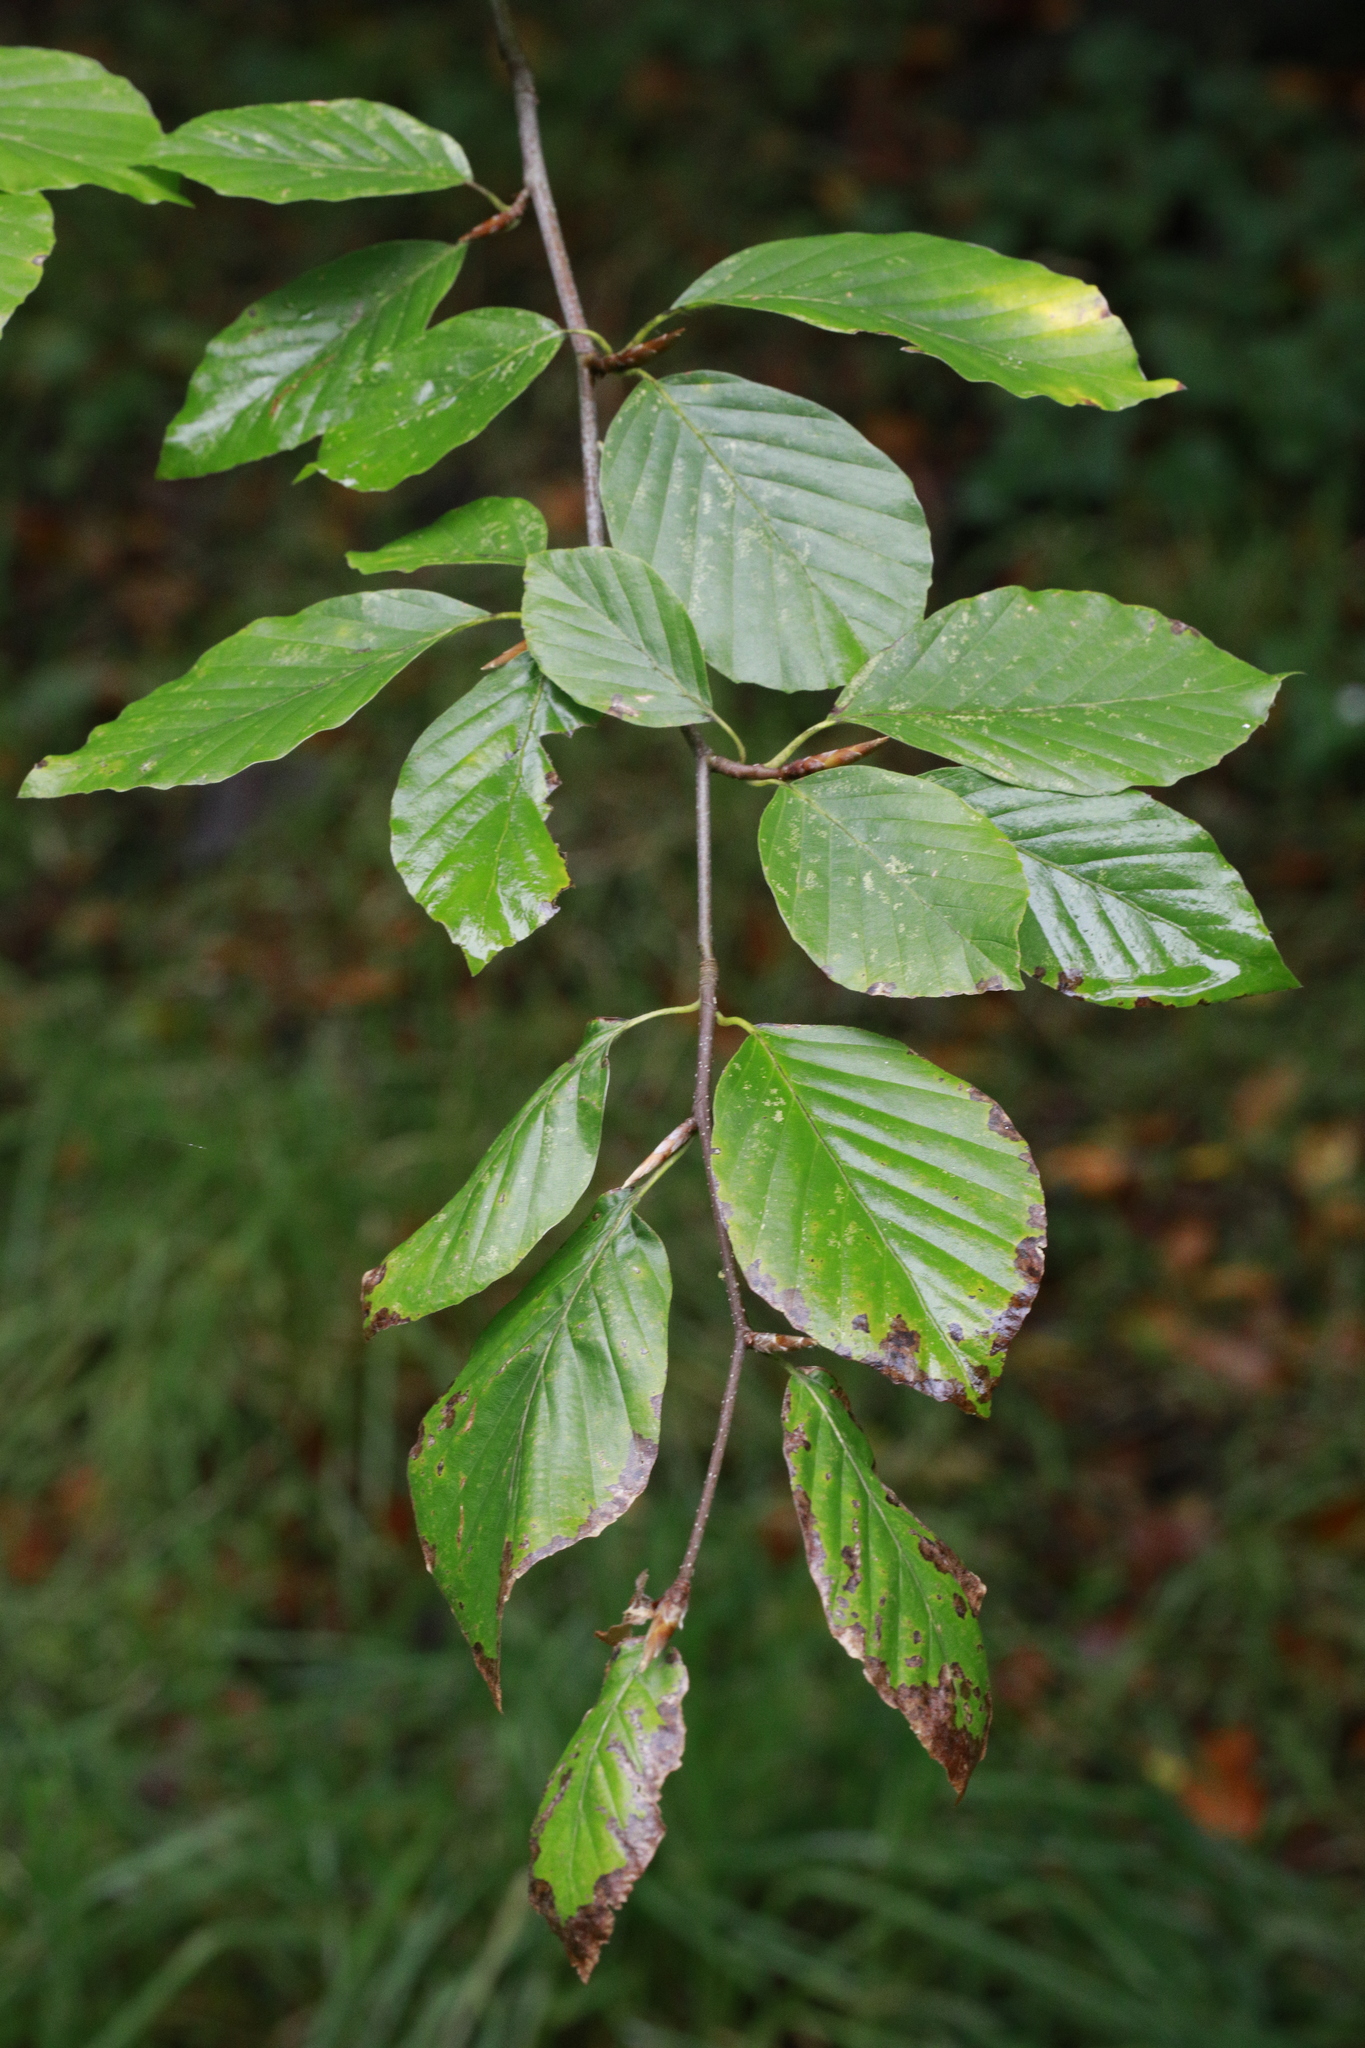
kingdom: Plantae
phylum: Tracheophyta
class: Magnoliopsida
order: Fagales
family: Fagaceae
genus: Fagus
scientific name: Fagus sylvatica
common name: Beech
